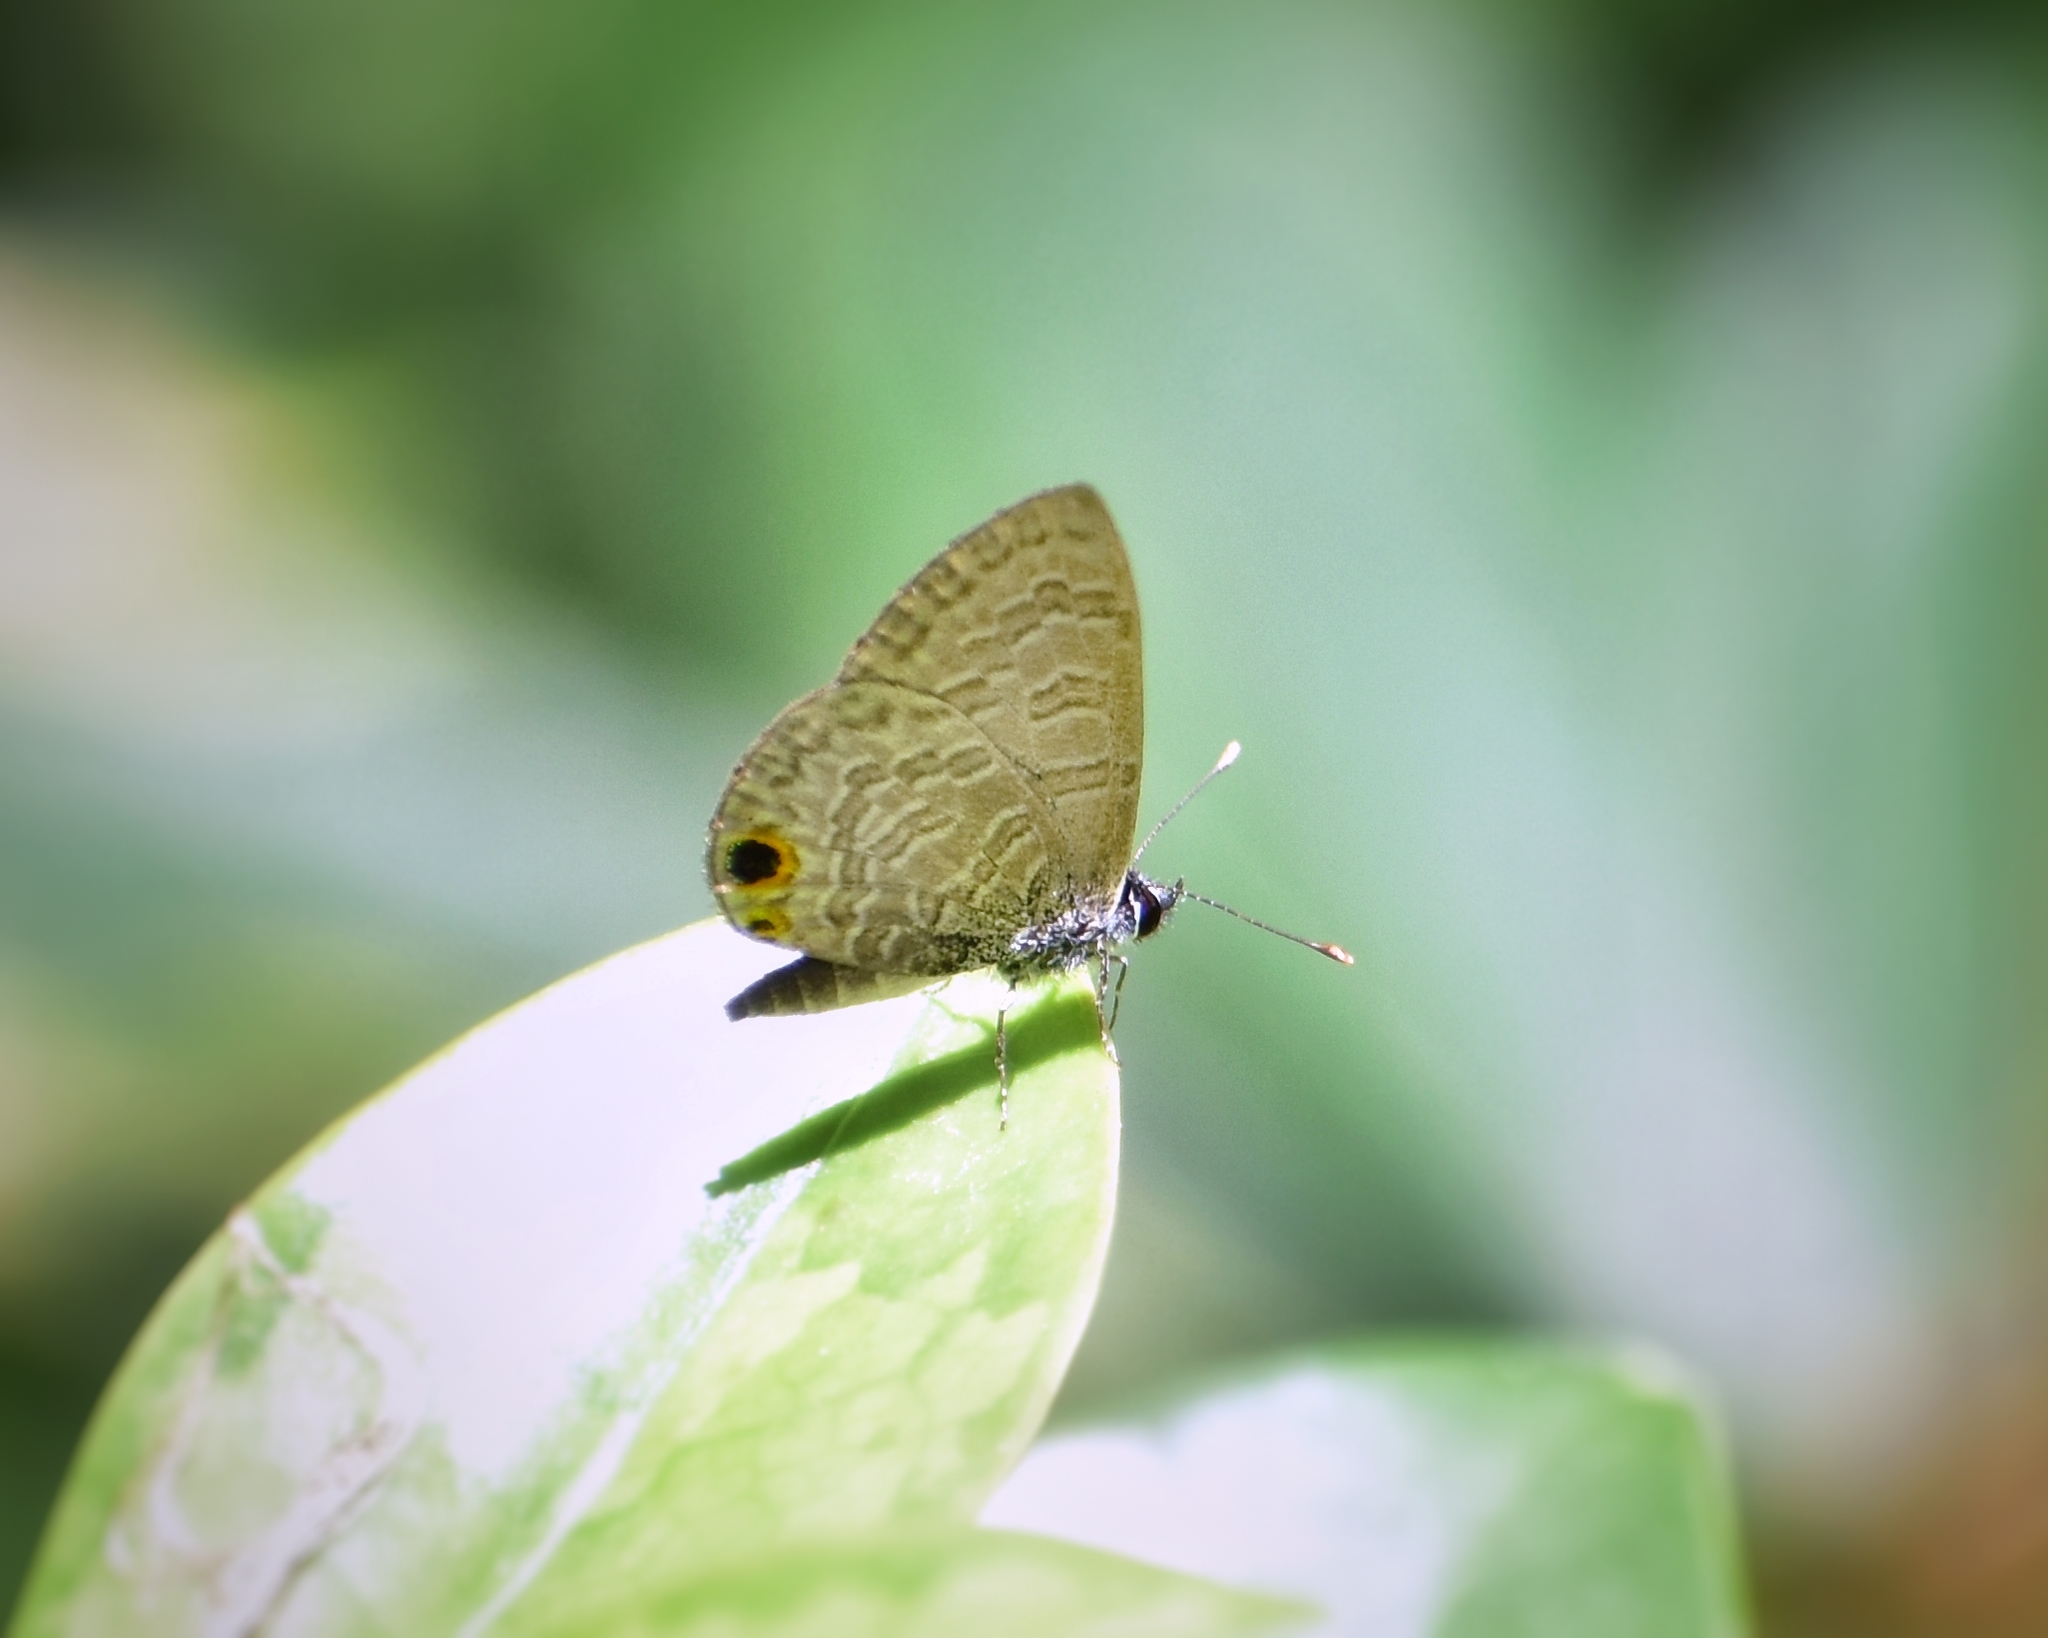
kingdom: Animalia
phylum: Arthropoda
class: Insecta
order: Lepidoptera
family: Lycaenidae
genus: Prosotas
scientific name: Prosotas dubiosa
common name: Tailless lineblue
